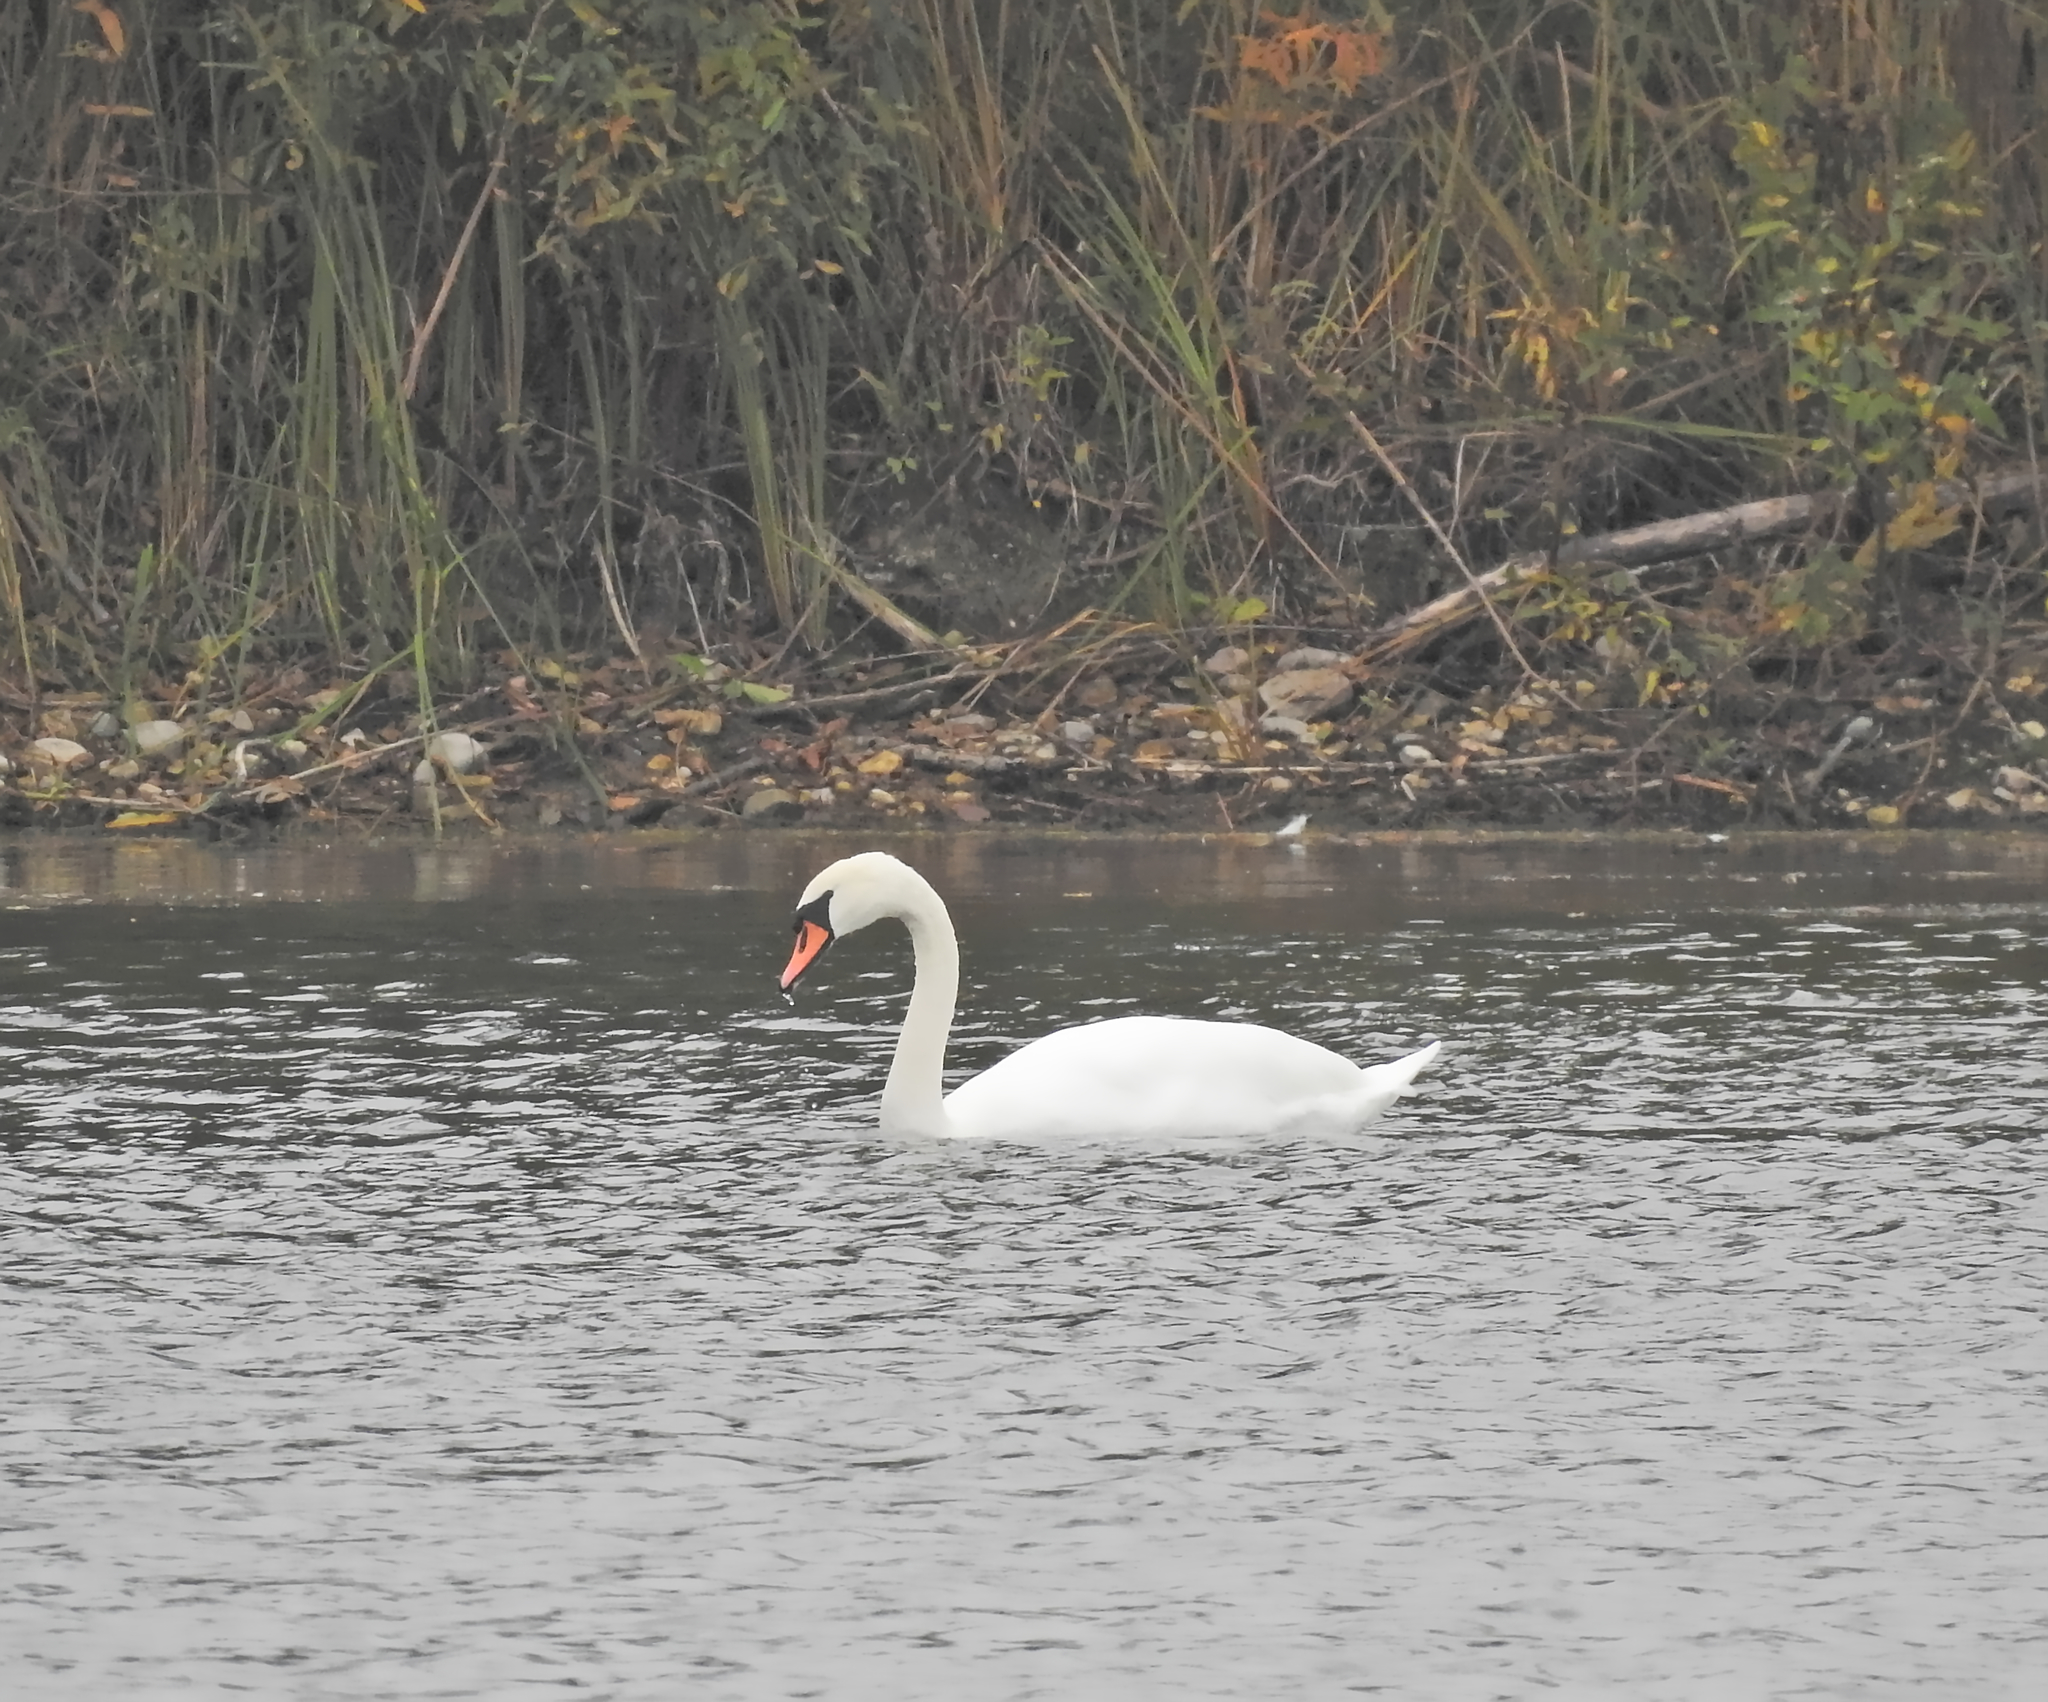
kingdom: Animalia
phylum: Chordata
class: Aves
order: Anseriformes
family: Anatidae
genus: Cygnus
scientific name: Cygnus olor
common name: Mute swan
